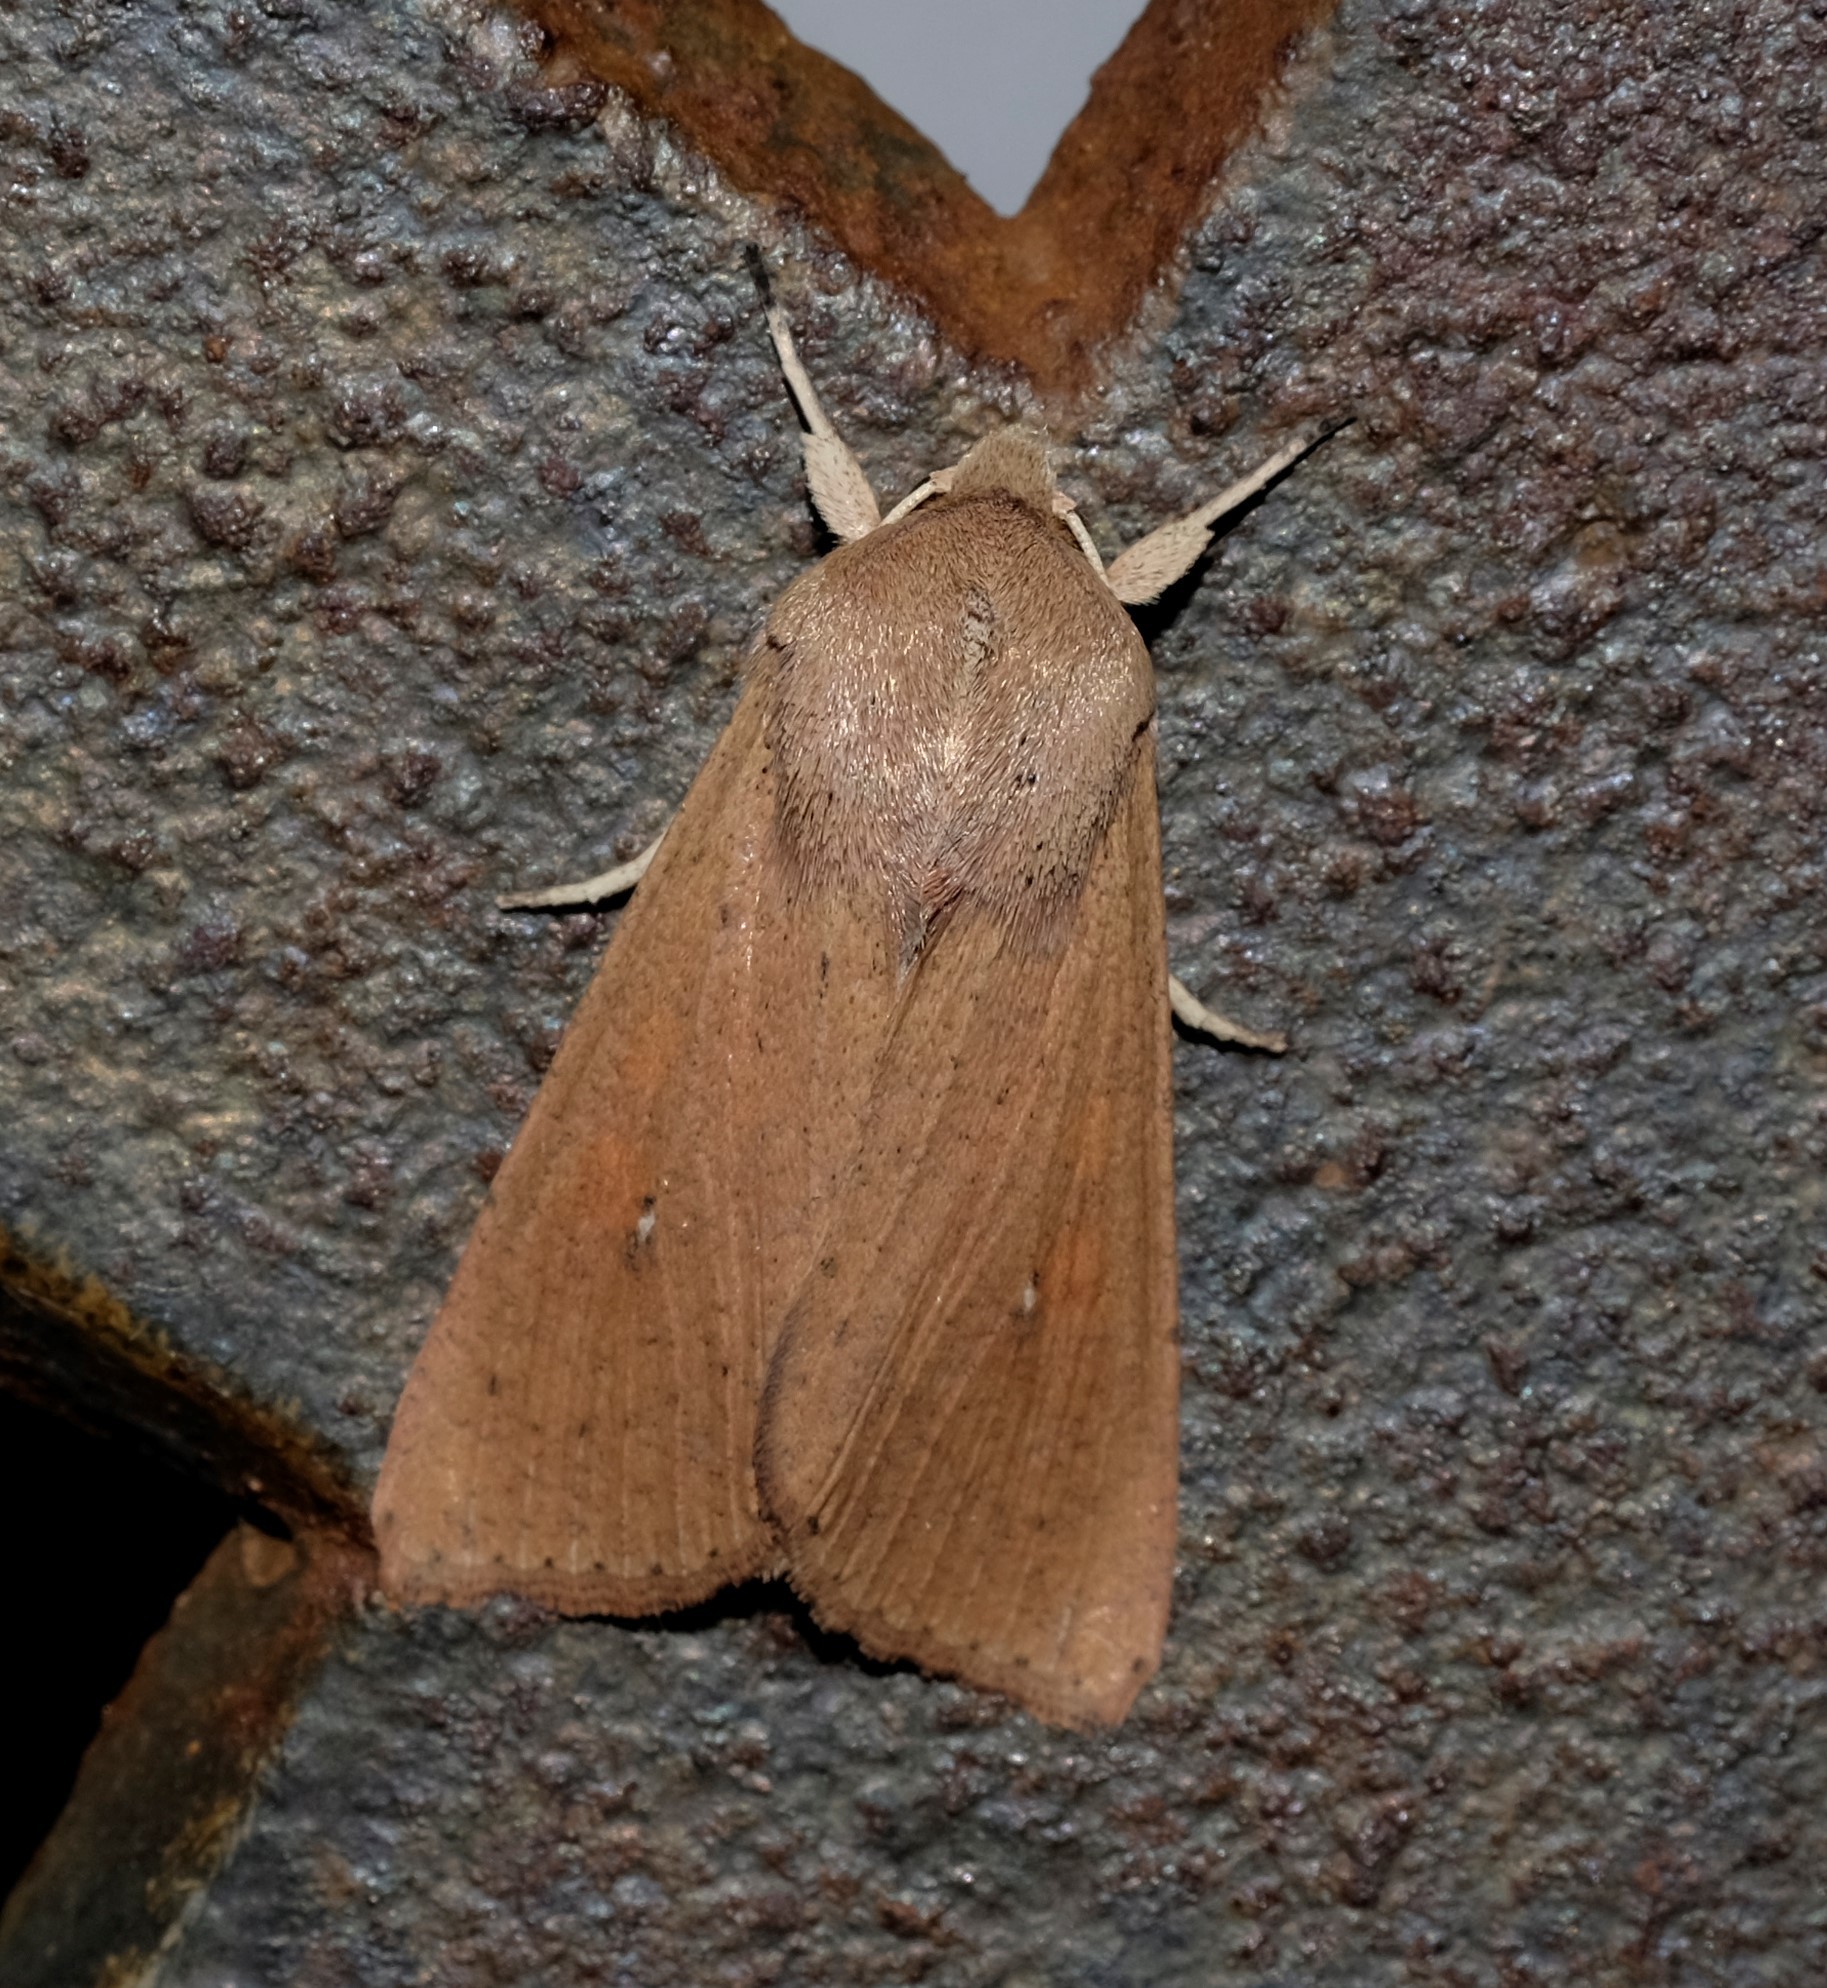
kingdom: Animalia
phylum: Arthropoda
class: Insecta
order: Lepidoptera
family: Noctuidae
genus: Mythimna
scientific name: Mythimna convecta
